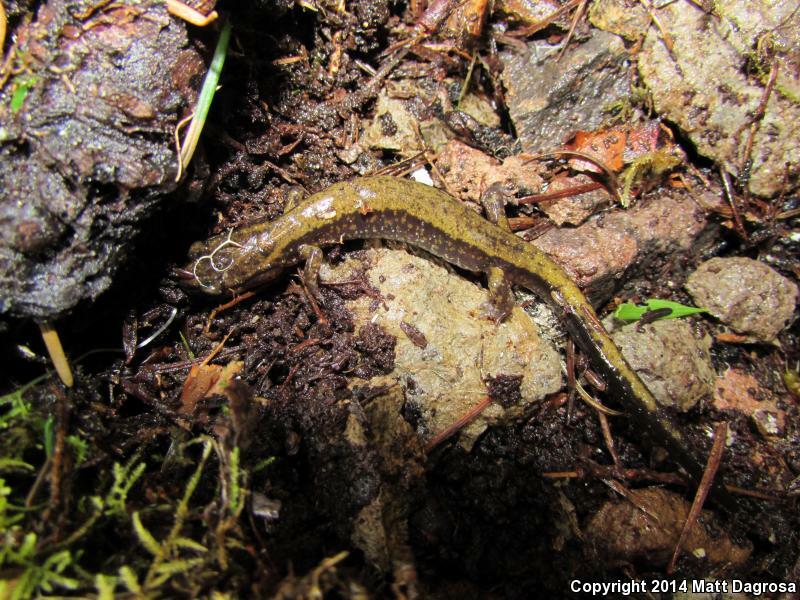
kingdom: Animalia
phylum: Chordata
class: Amphibia
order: Caudata
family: Plethodontidae
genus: Plethodon
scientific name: Plethodon dunni
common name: Dunn's salamander
